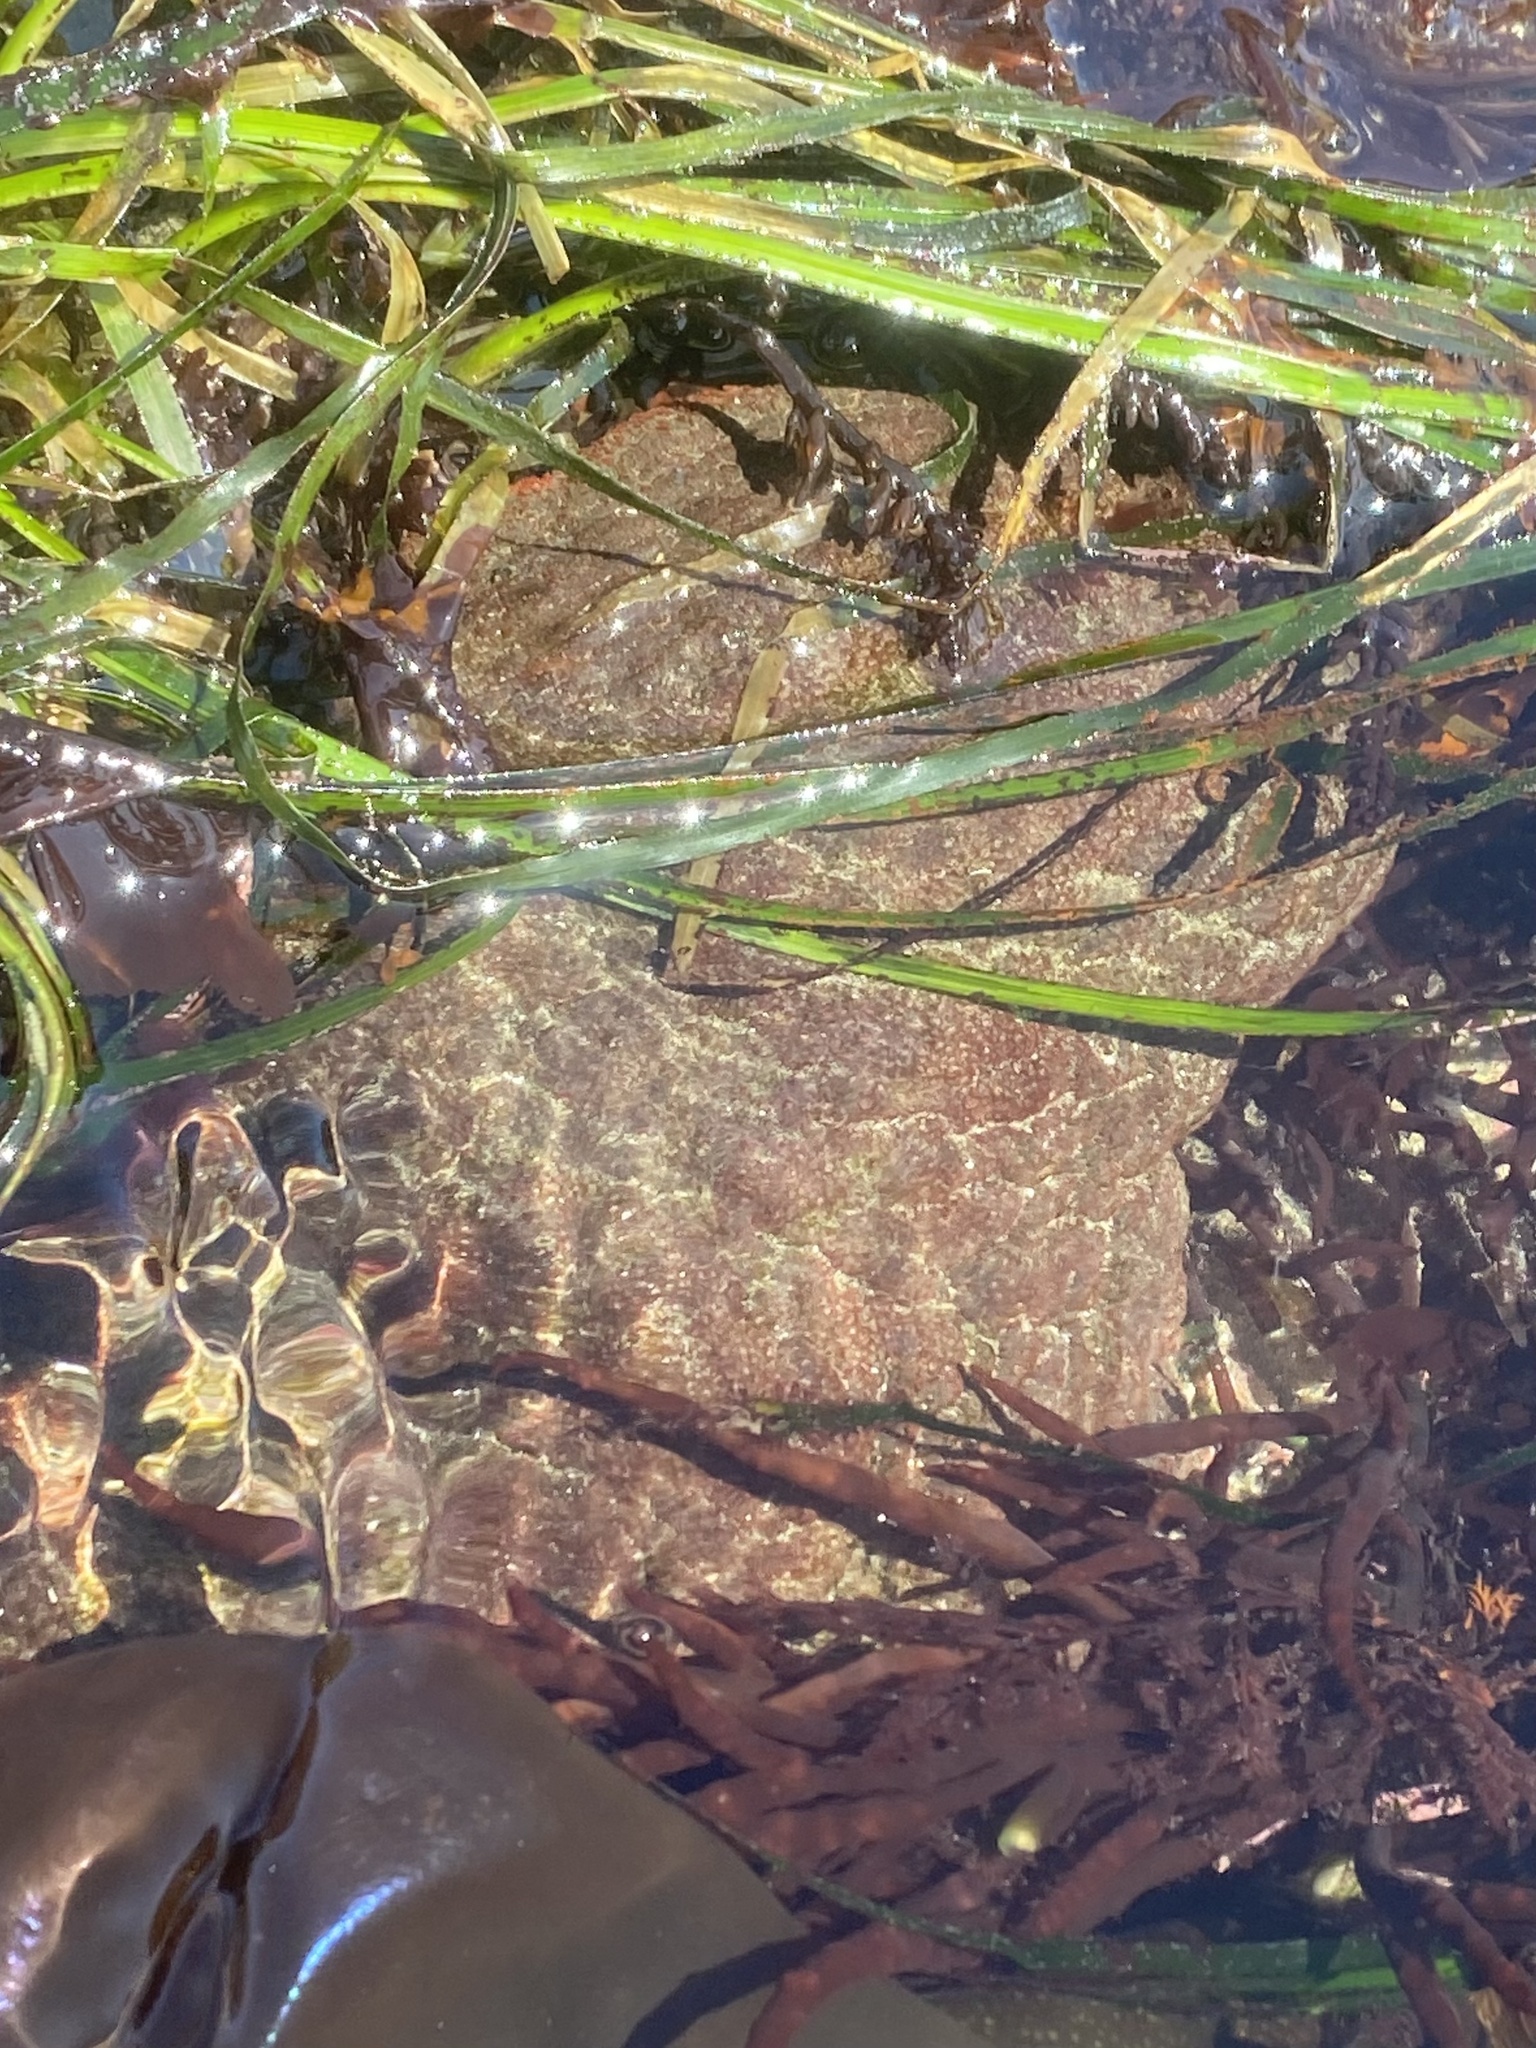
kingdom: Animalia
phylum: Mollusca
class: Polyplacophora
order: Chitonida
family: Acanthochitonidae
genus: Cryptochiton
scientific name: Cryptochiton stelleri
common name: Giant pacific chiton
